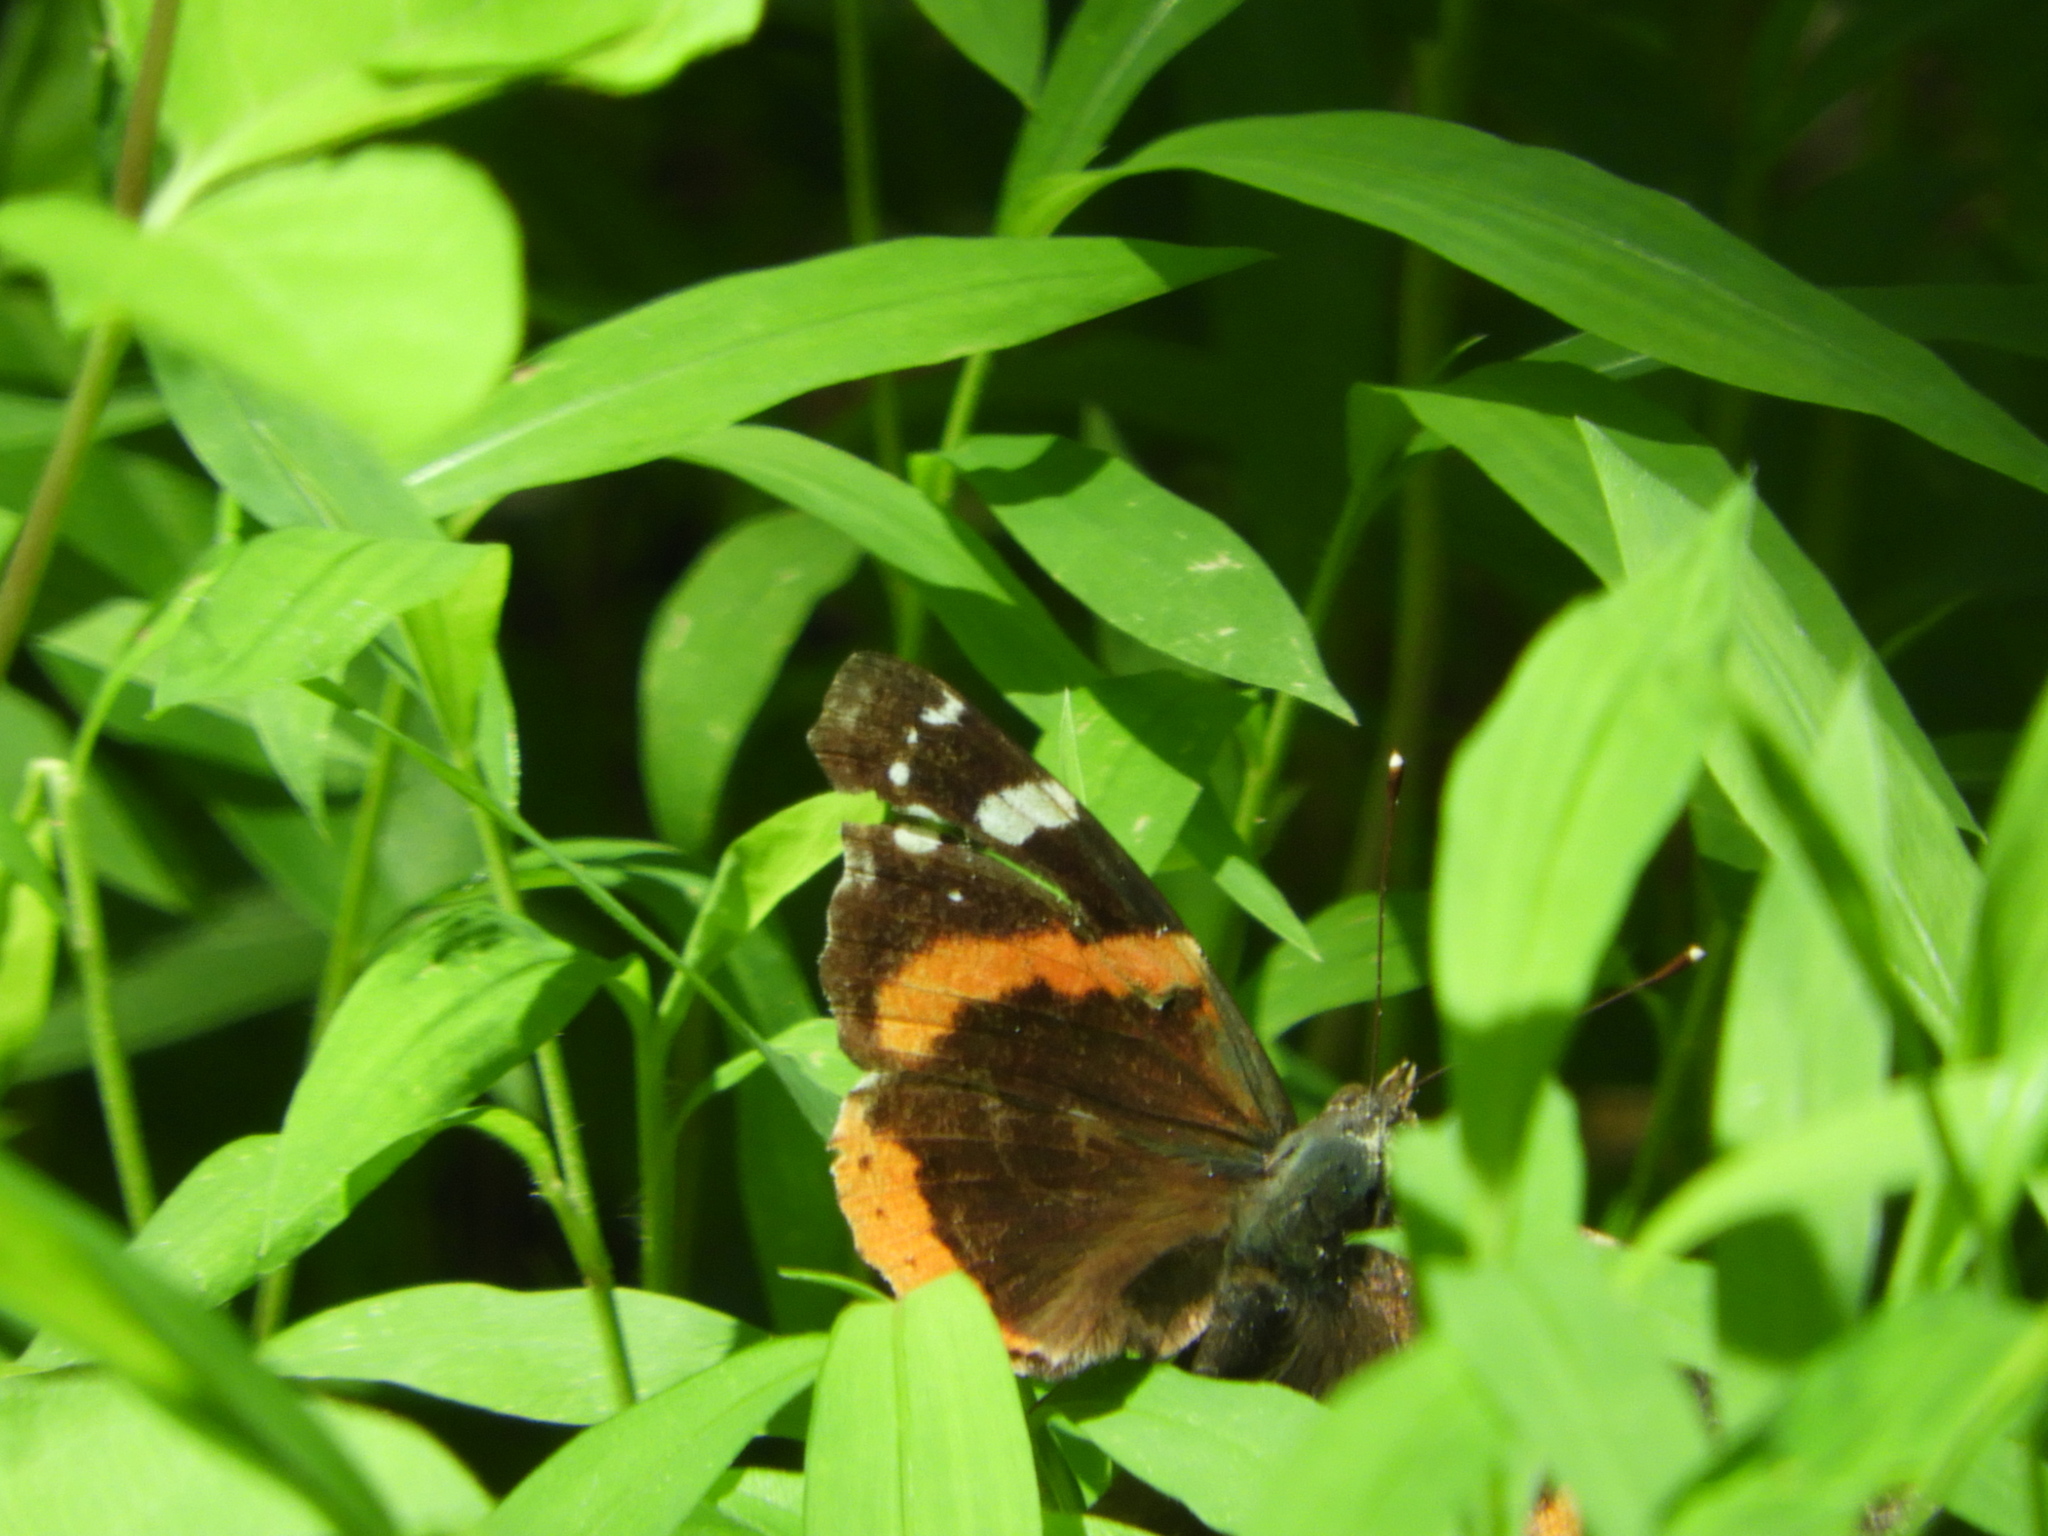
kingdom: Animalia
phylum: Arthropoda
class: Insecta
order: Lepidoptera
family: Nymphalidae
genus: Vanessa
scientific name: Vanessa atalanta
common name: Red admiral
